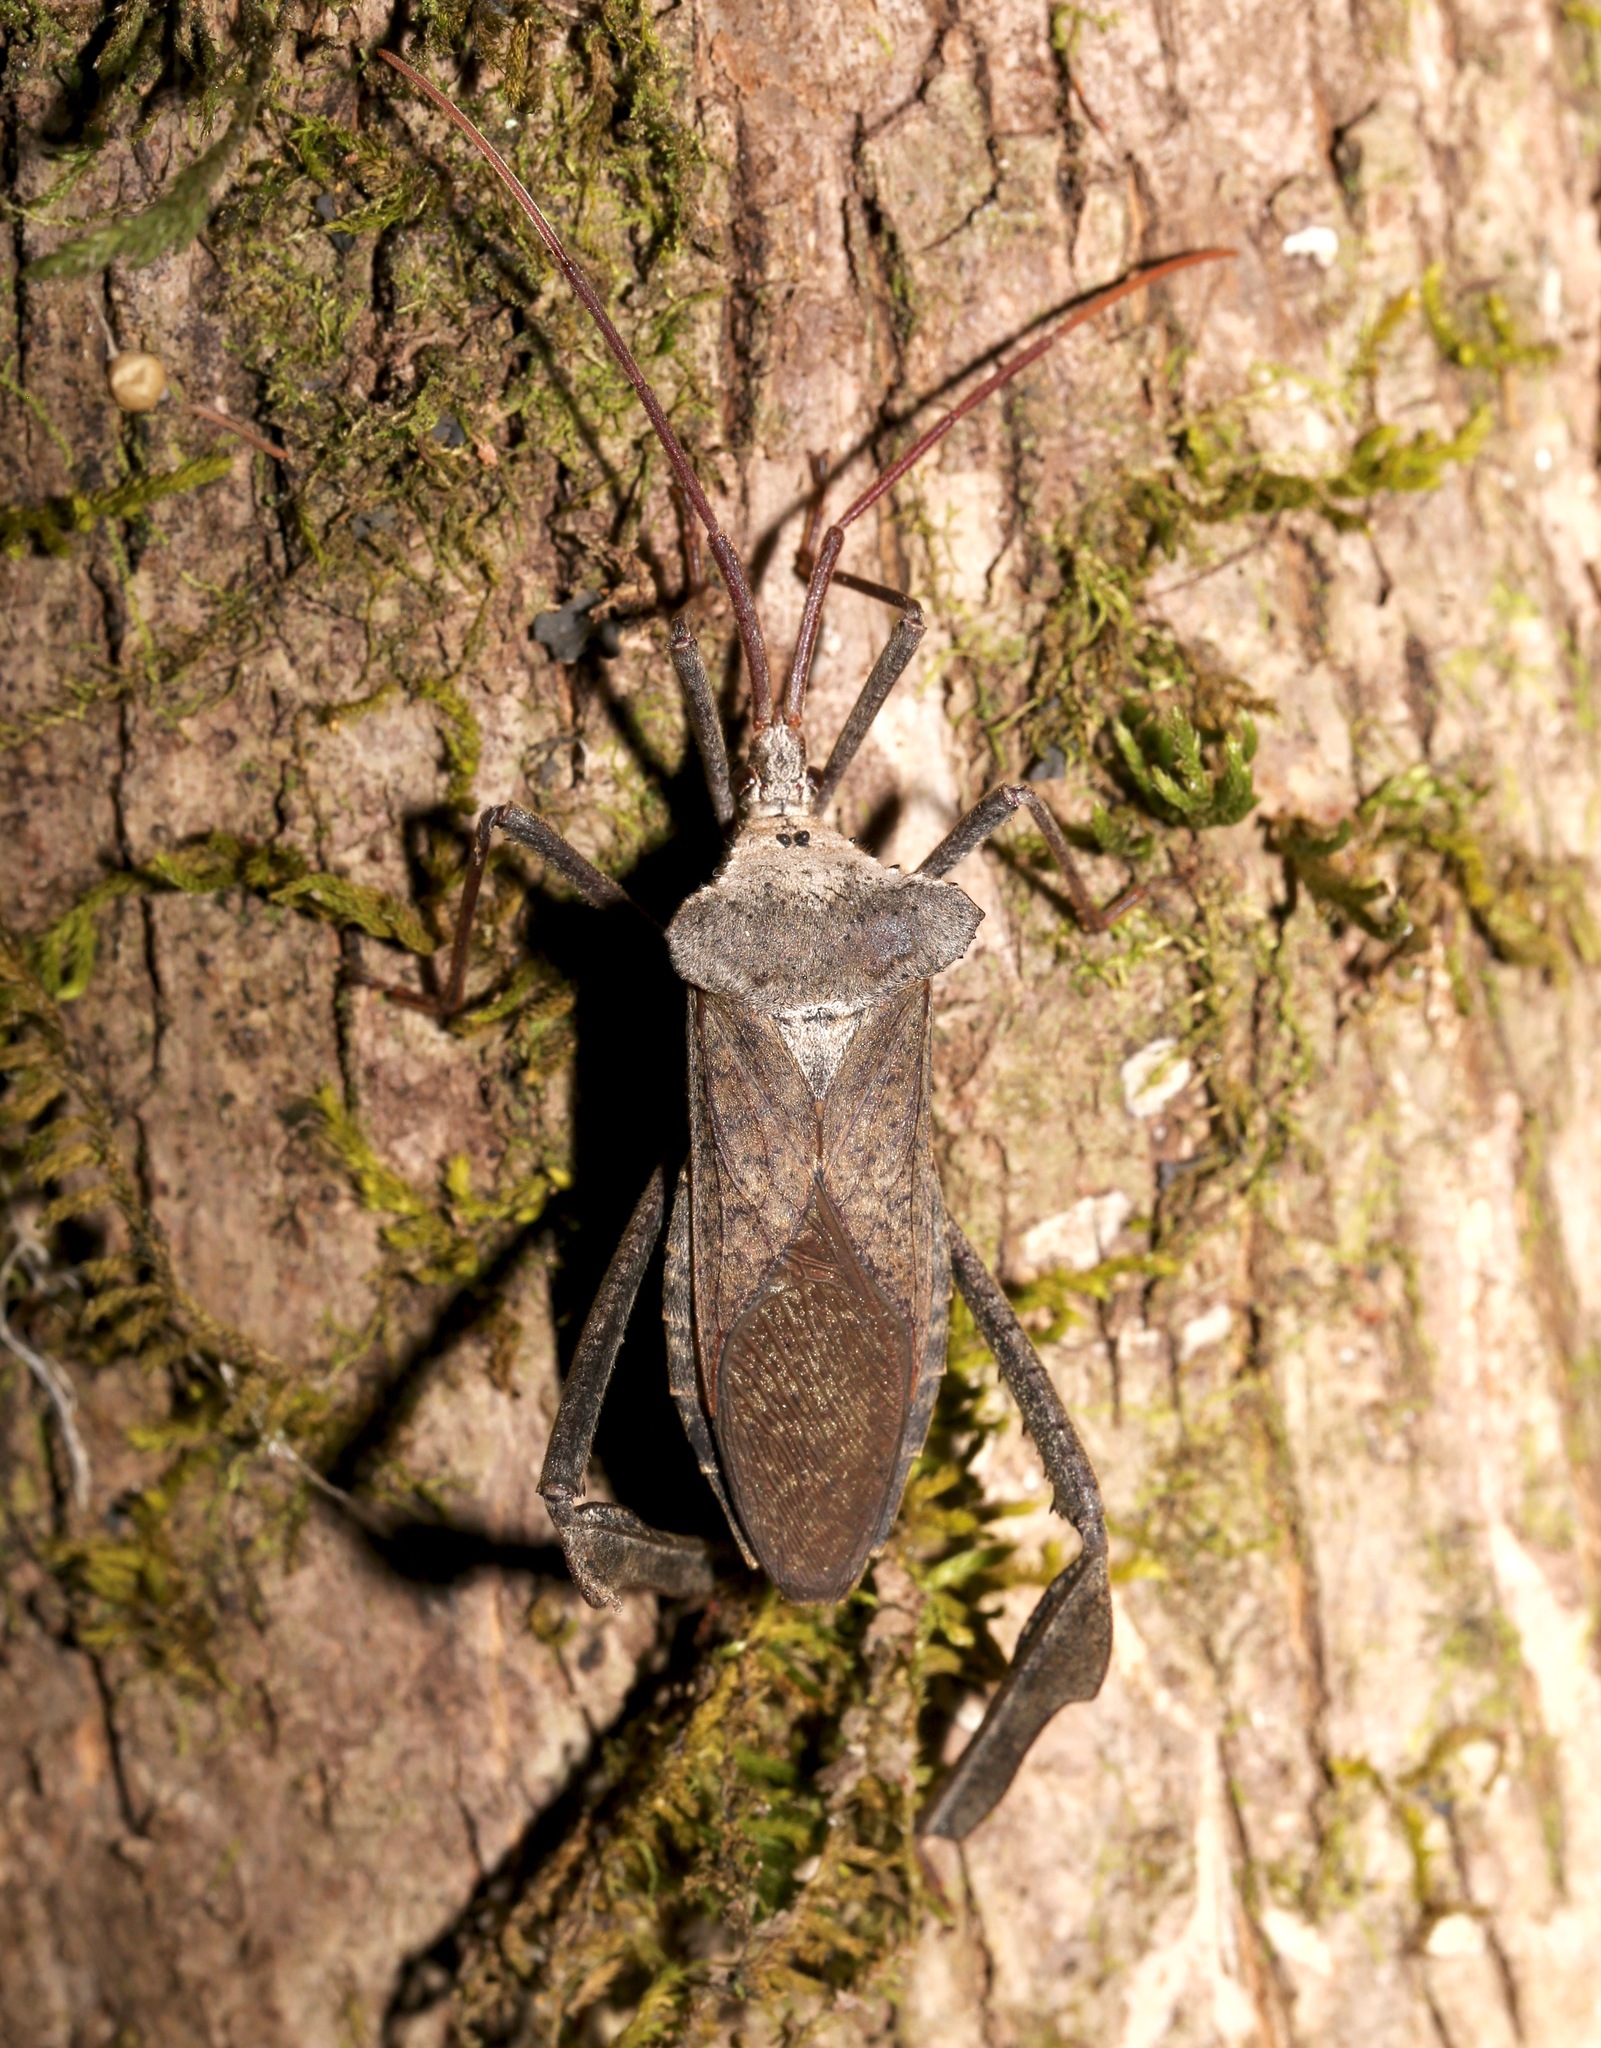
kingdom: Animalia
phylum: Arthropoda
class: Insecta
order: Hemiptera
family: Coreidae
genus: Acanthocephala
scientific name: Acanthocephala declivis
